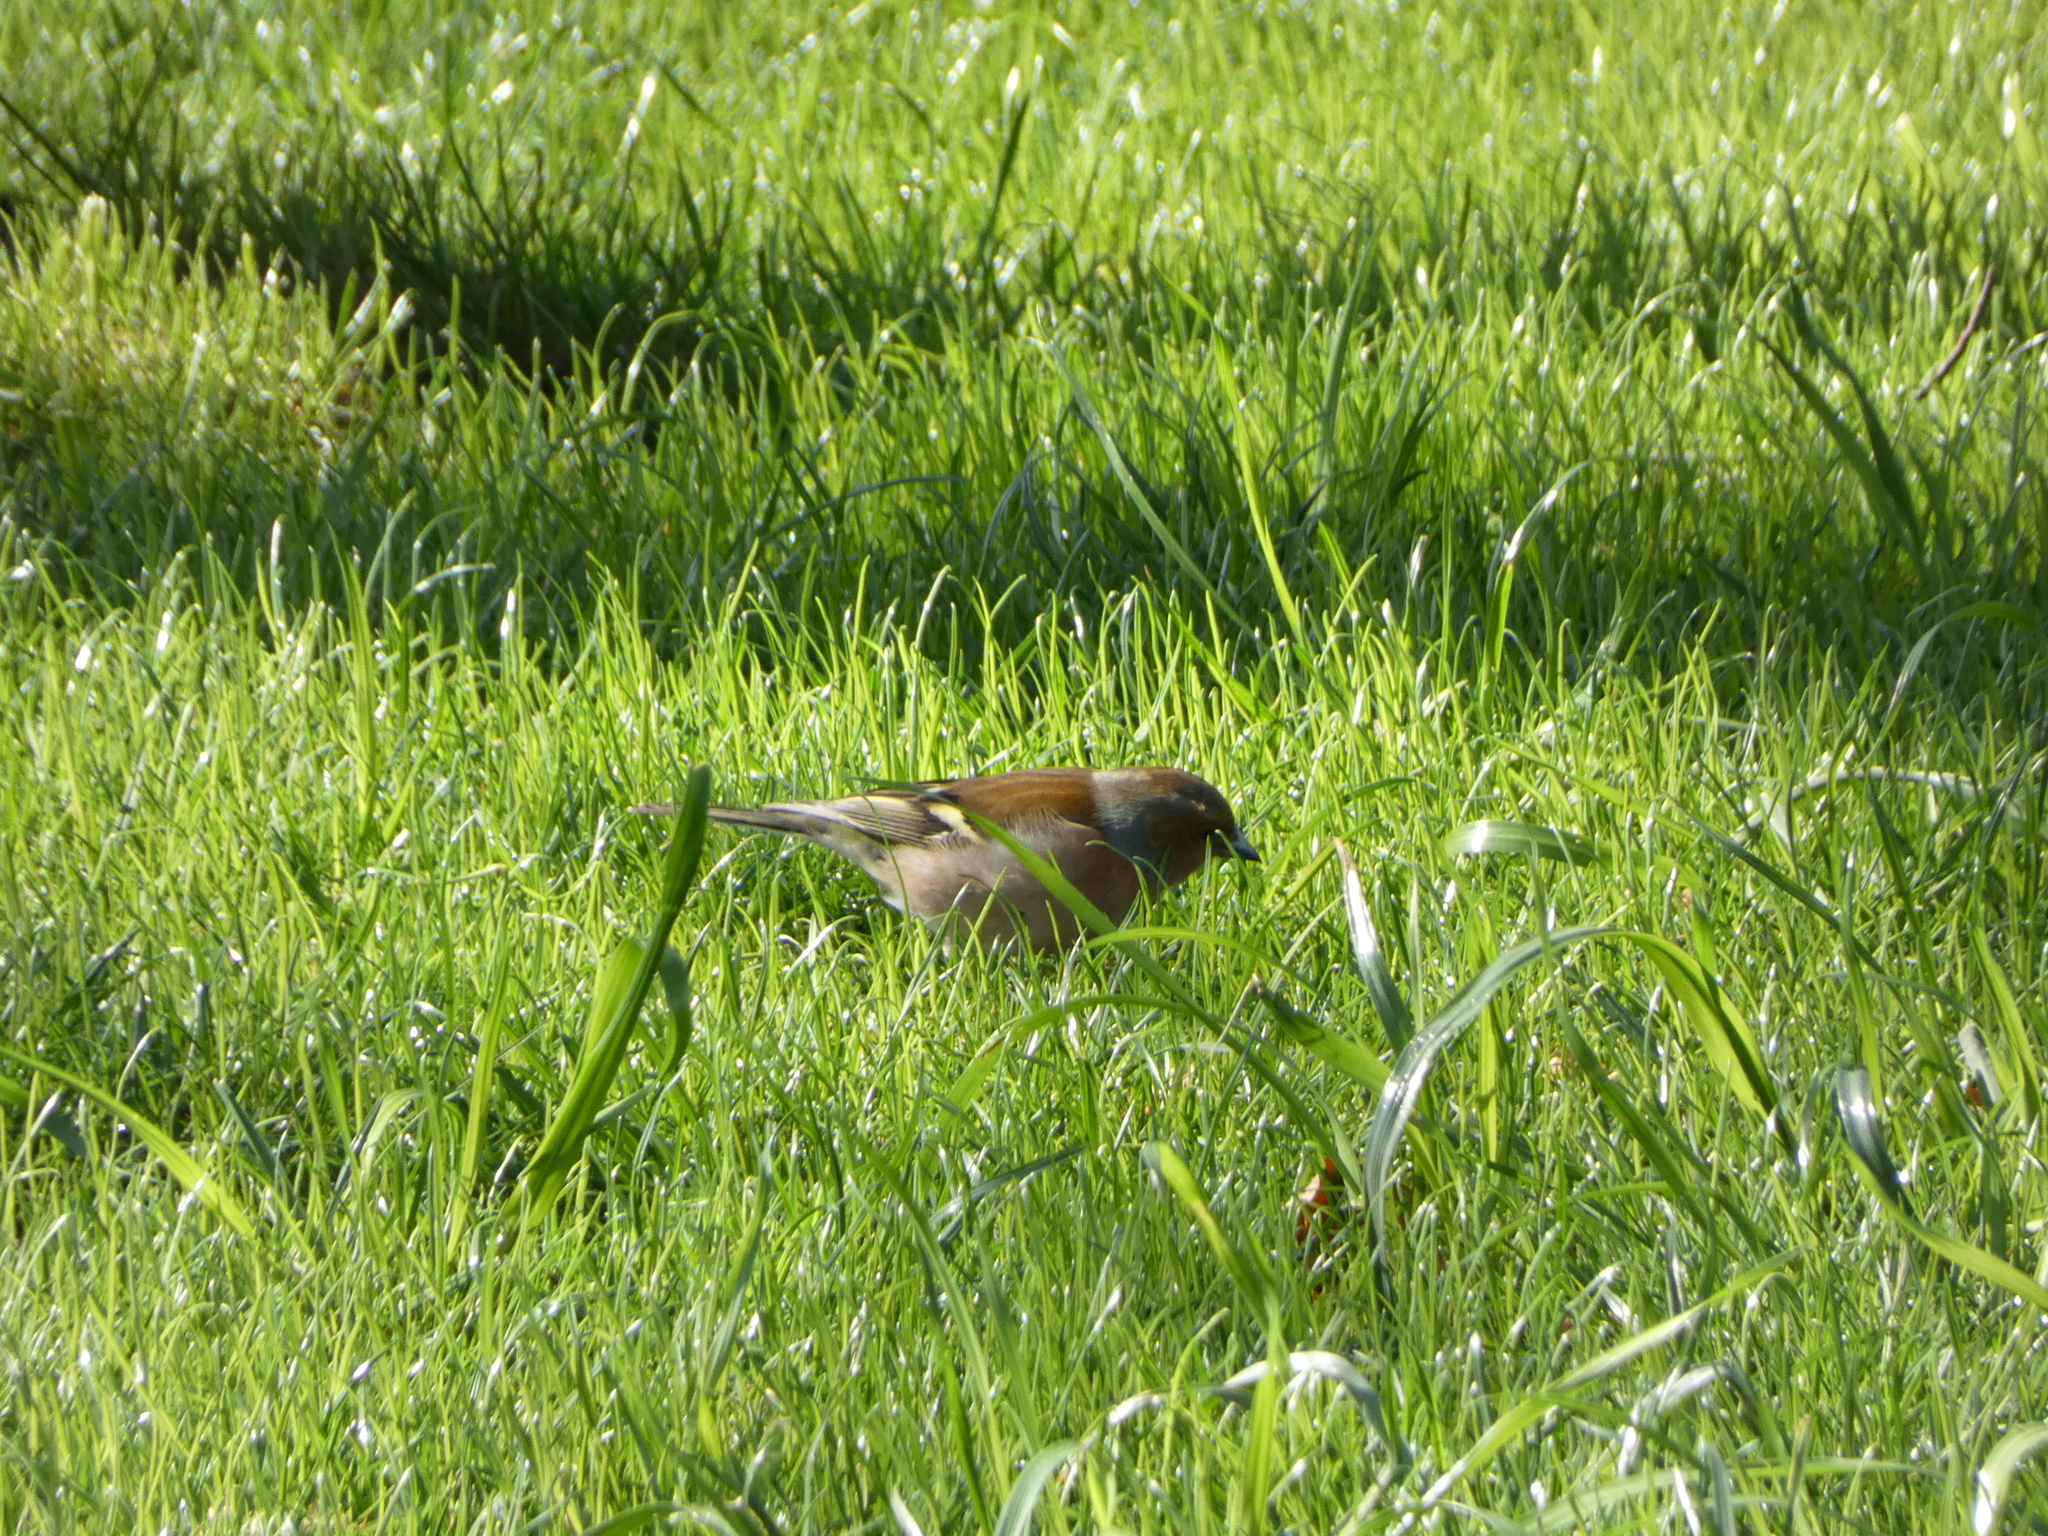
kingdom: Animalia
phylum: Chordata
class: Aves
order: Passeriformes
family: Fringillidae
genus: Fringilla
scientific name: Fringilla coelebs
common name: Common chaffinch
